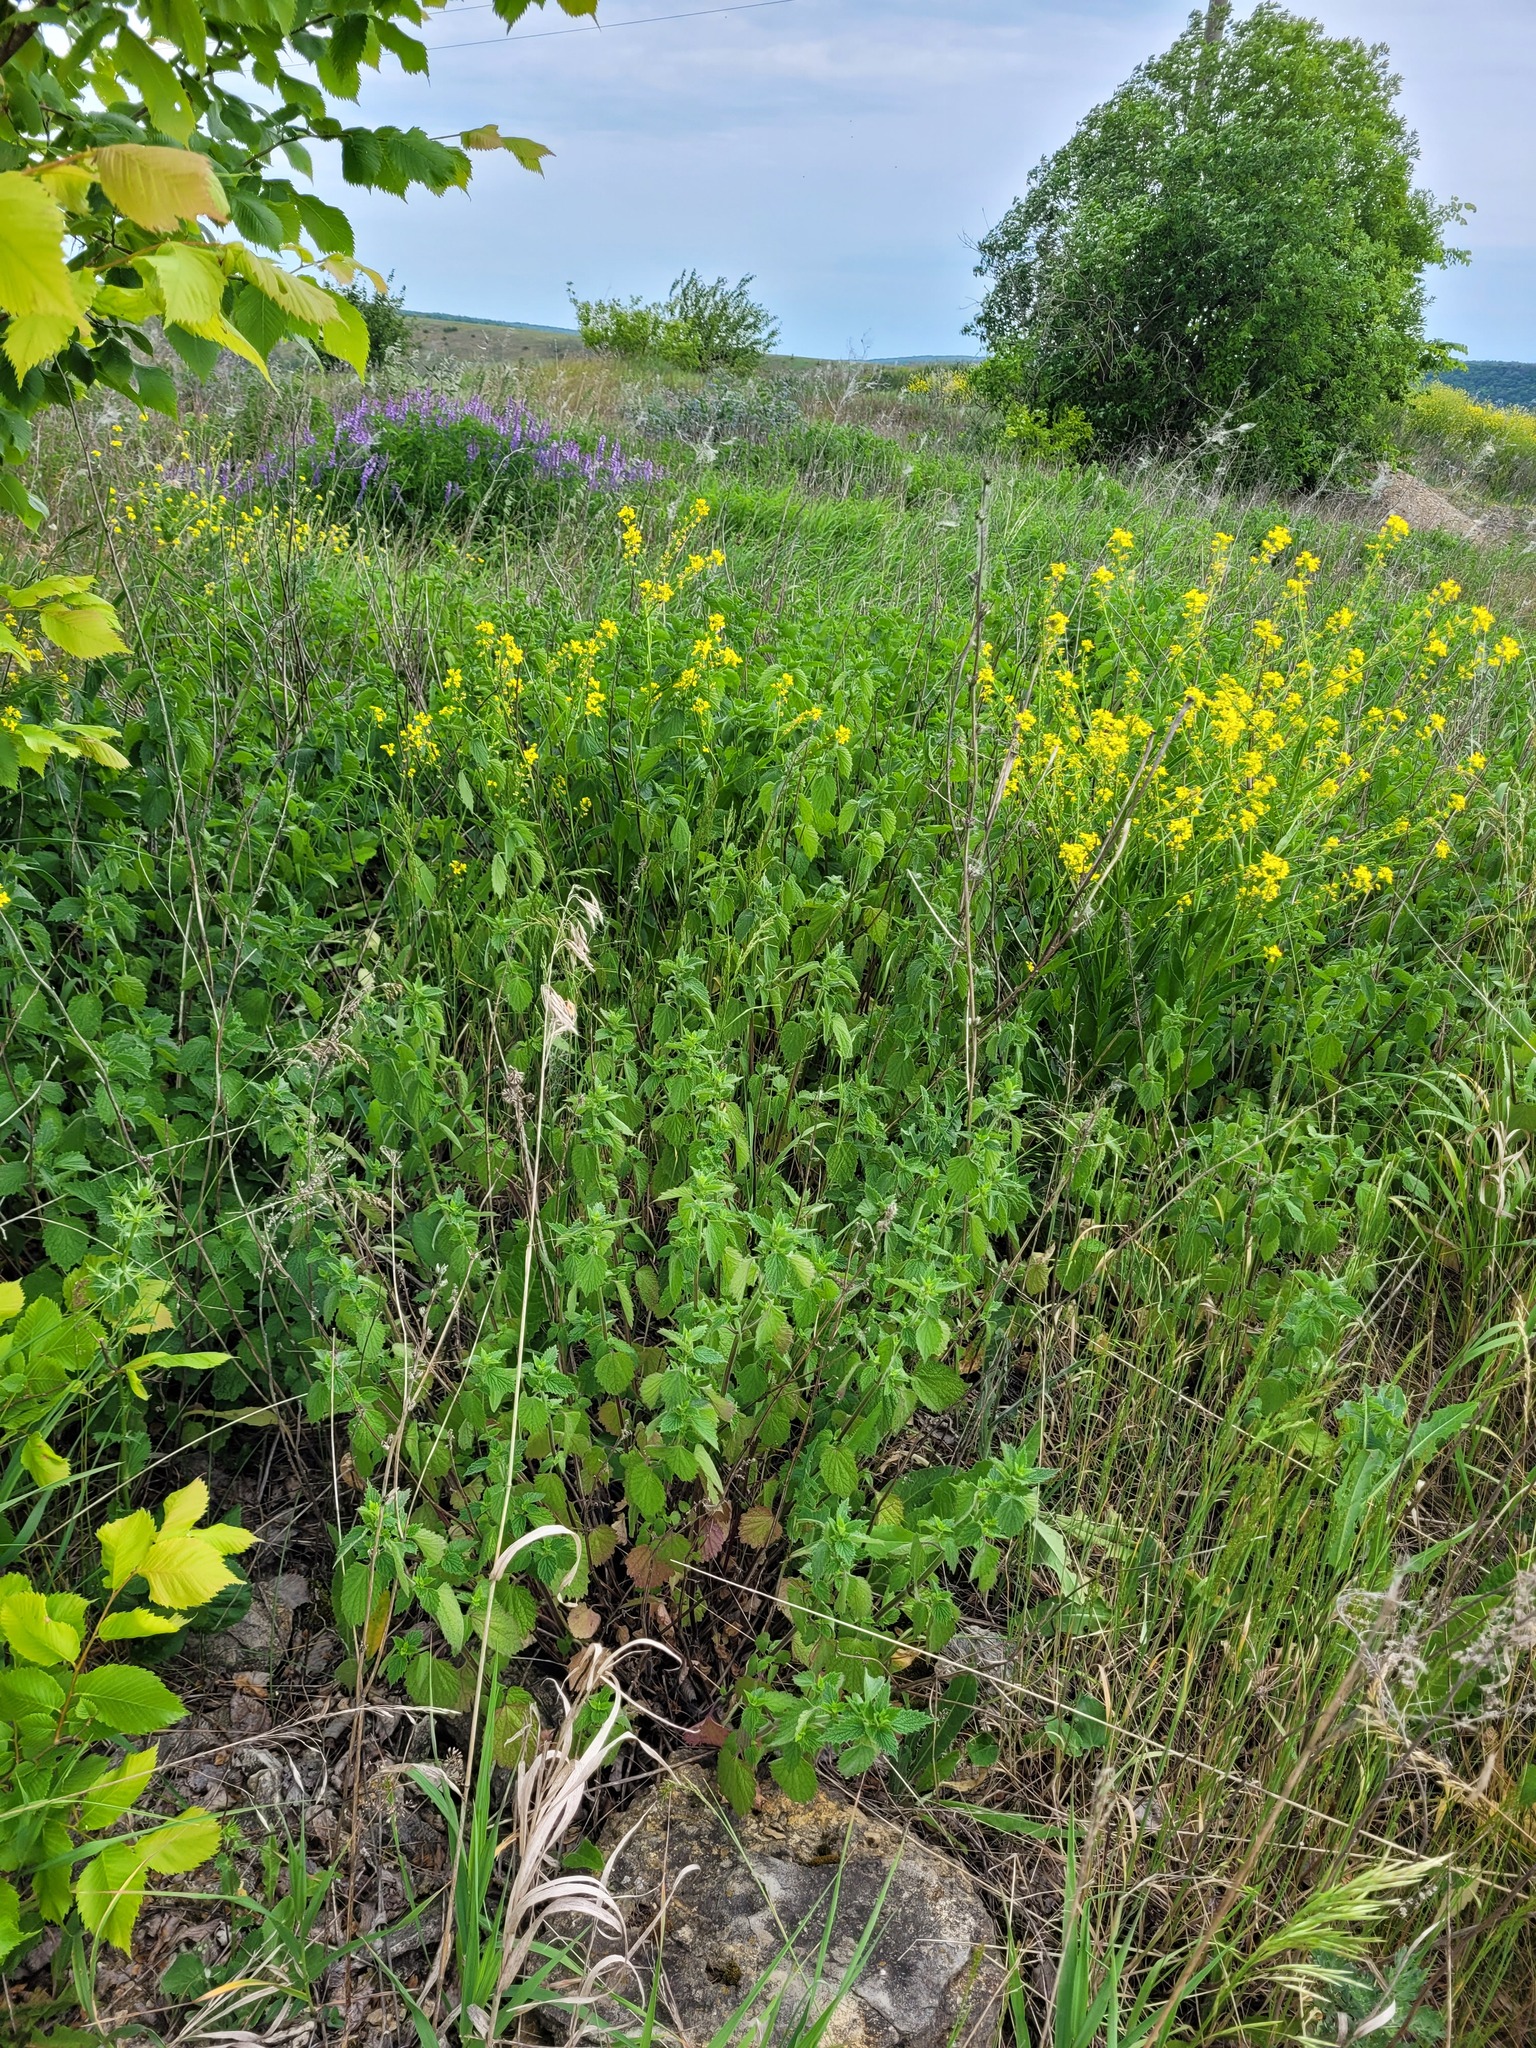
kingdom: Plantae
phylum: Tracheophyta
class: Magnoliopsida
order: Lamiales
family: Lamiaceae
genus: Ballota
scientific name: Ballota nigra
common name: Black horehound
